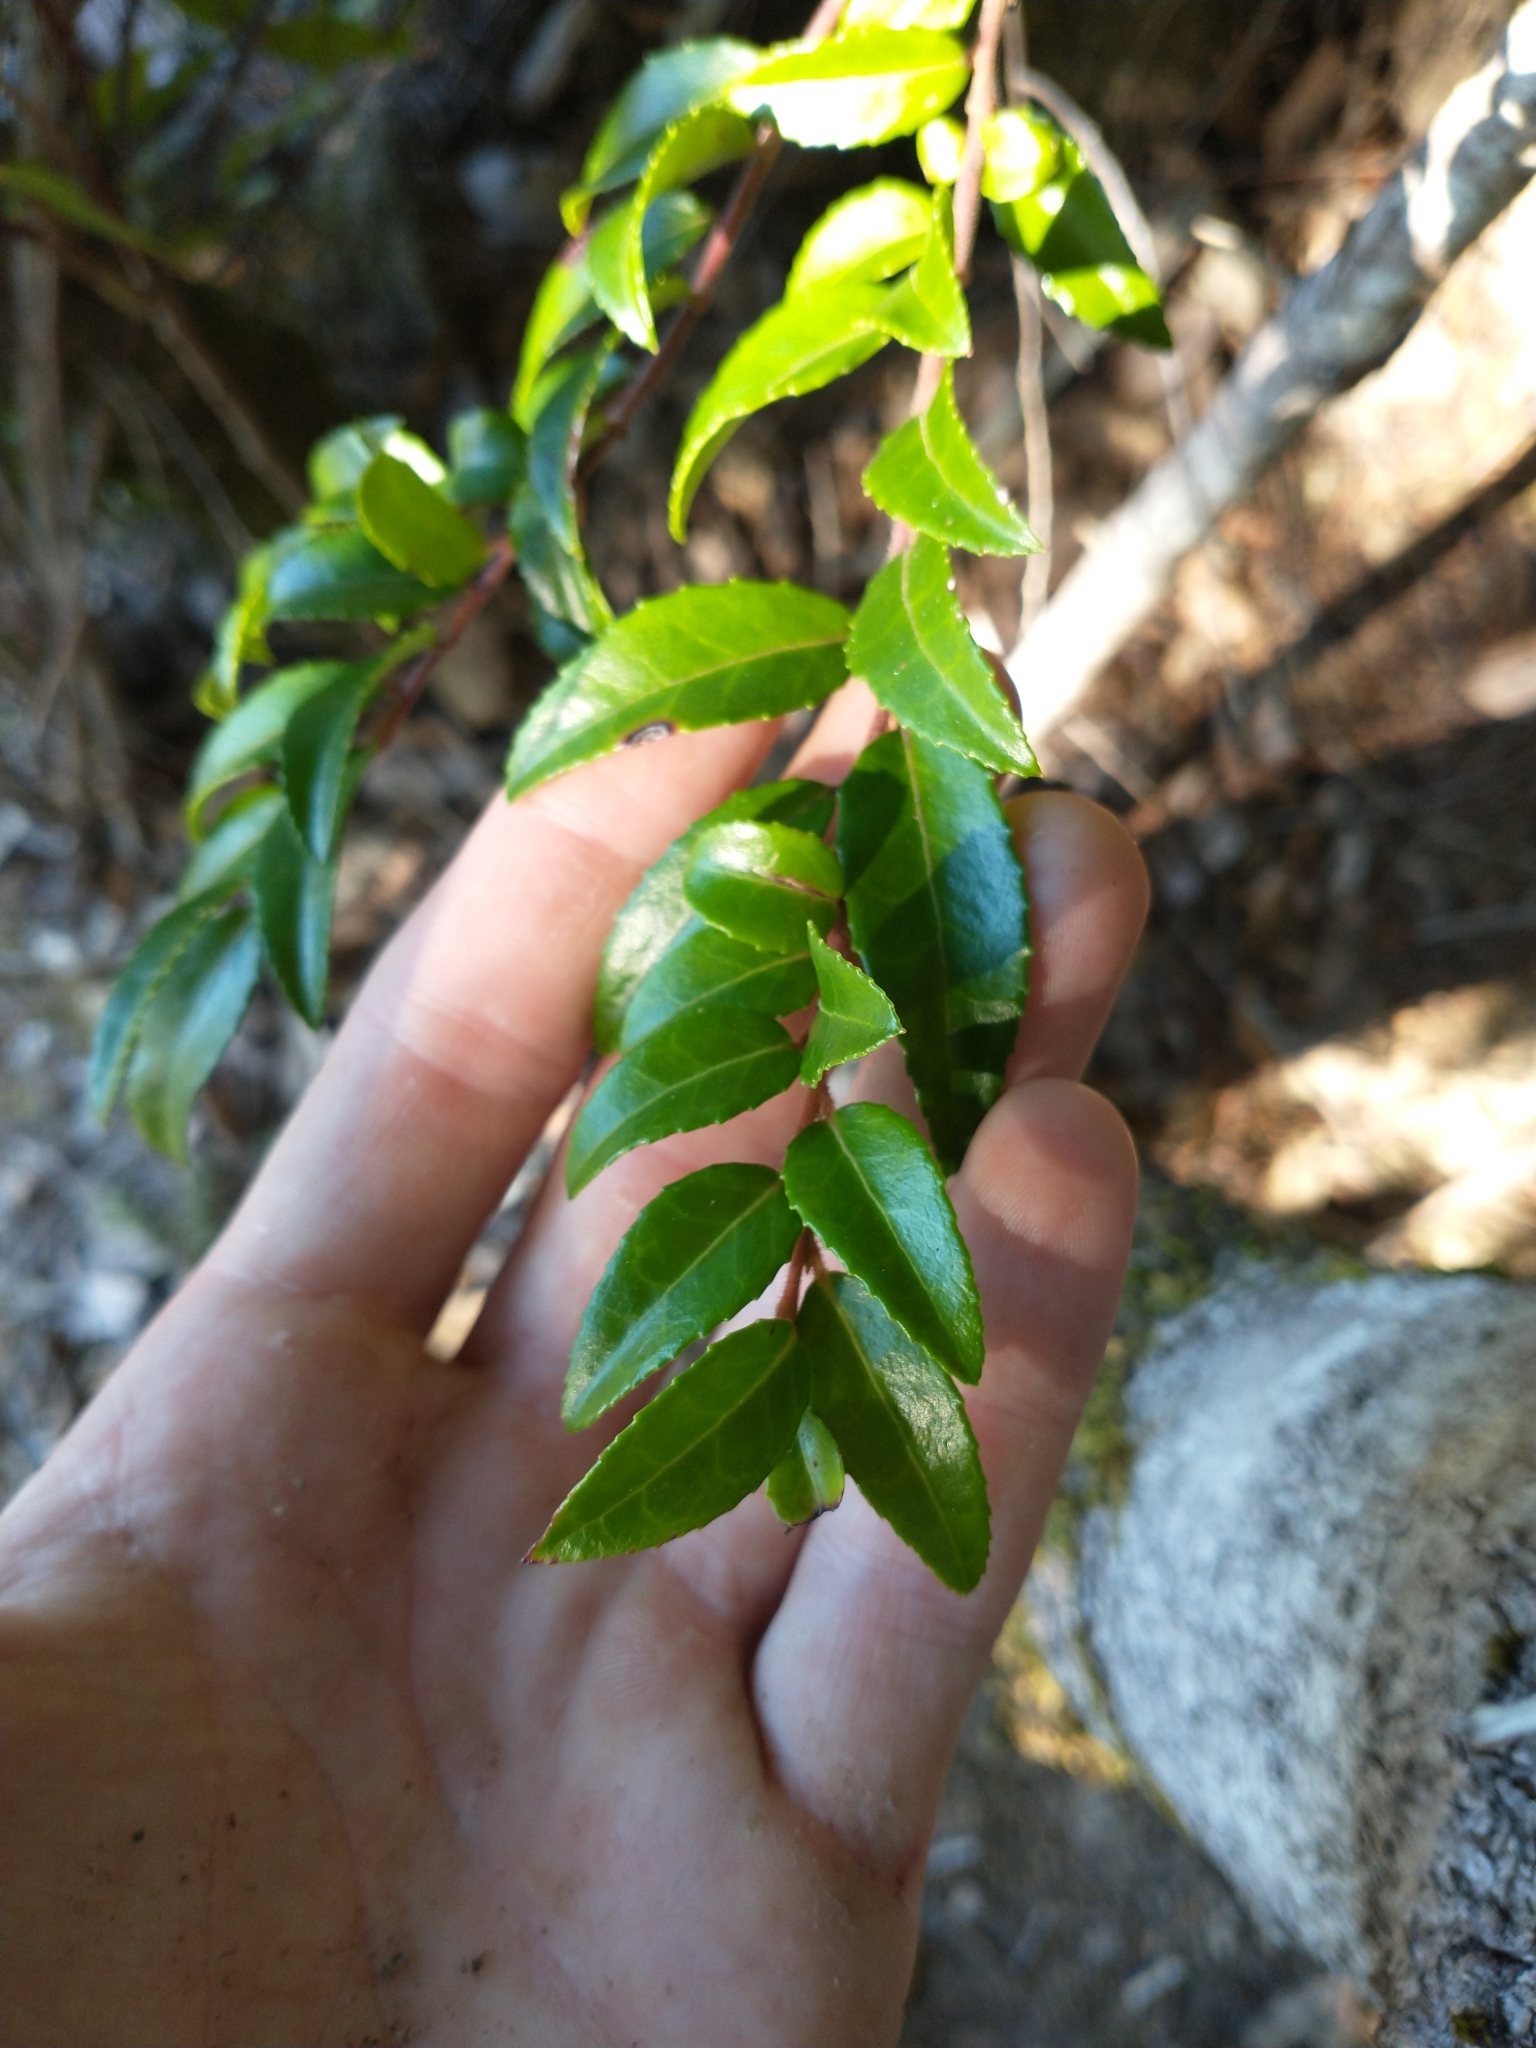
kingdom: Plantae
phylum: Tracheophyta
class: Magnoliopsida
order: Ericales
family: Ericaceae
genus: Vaccinium
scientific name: Vaccinium ovatum
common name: California-huckleberry
